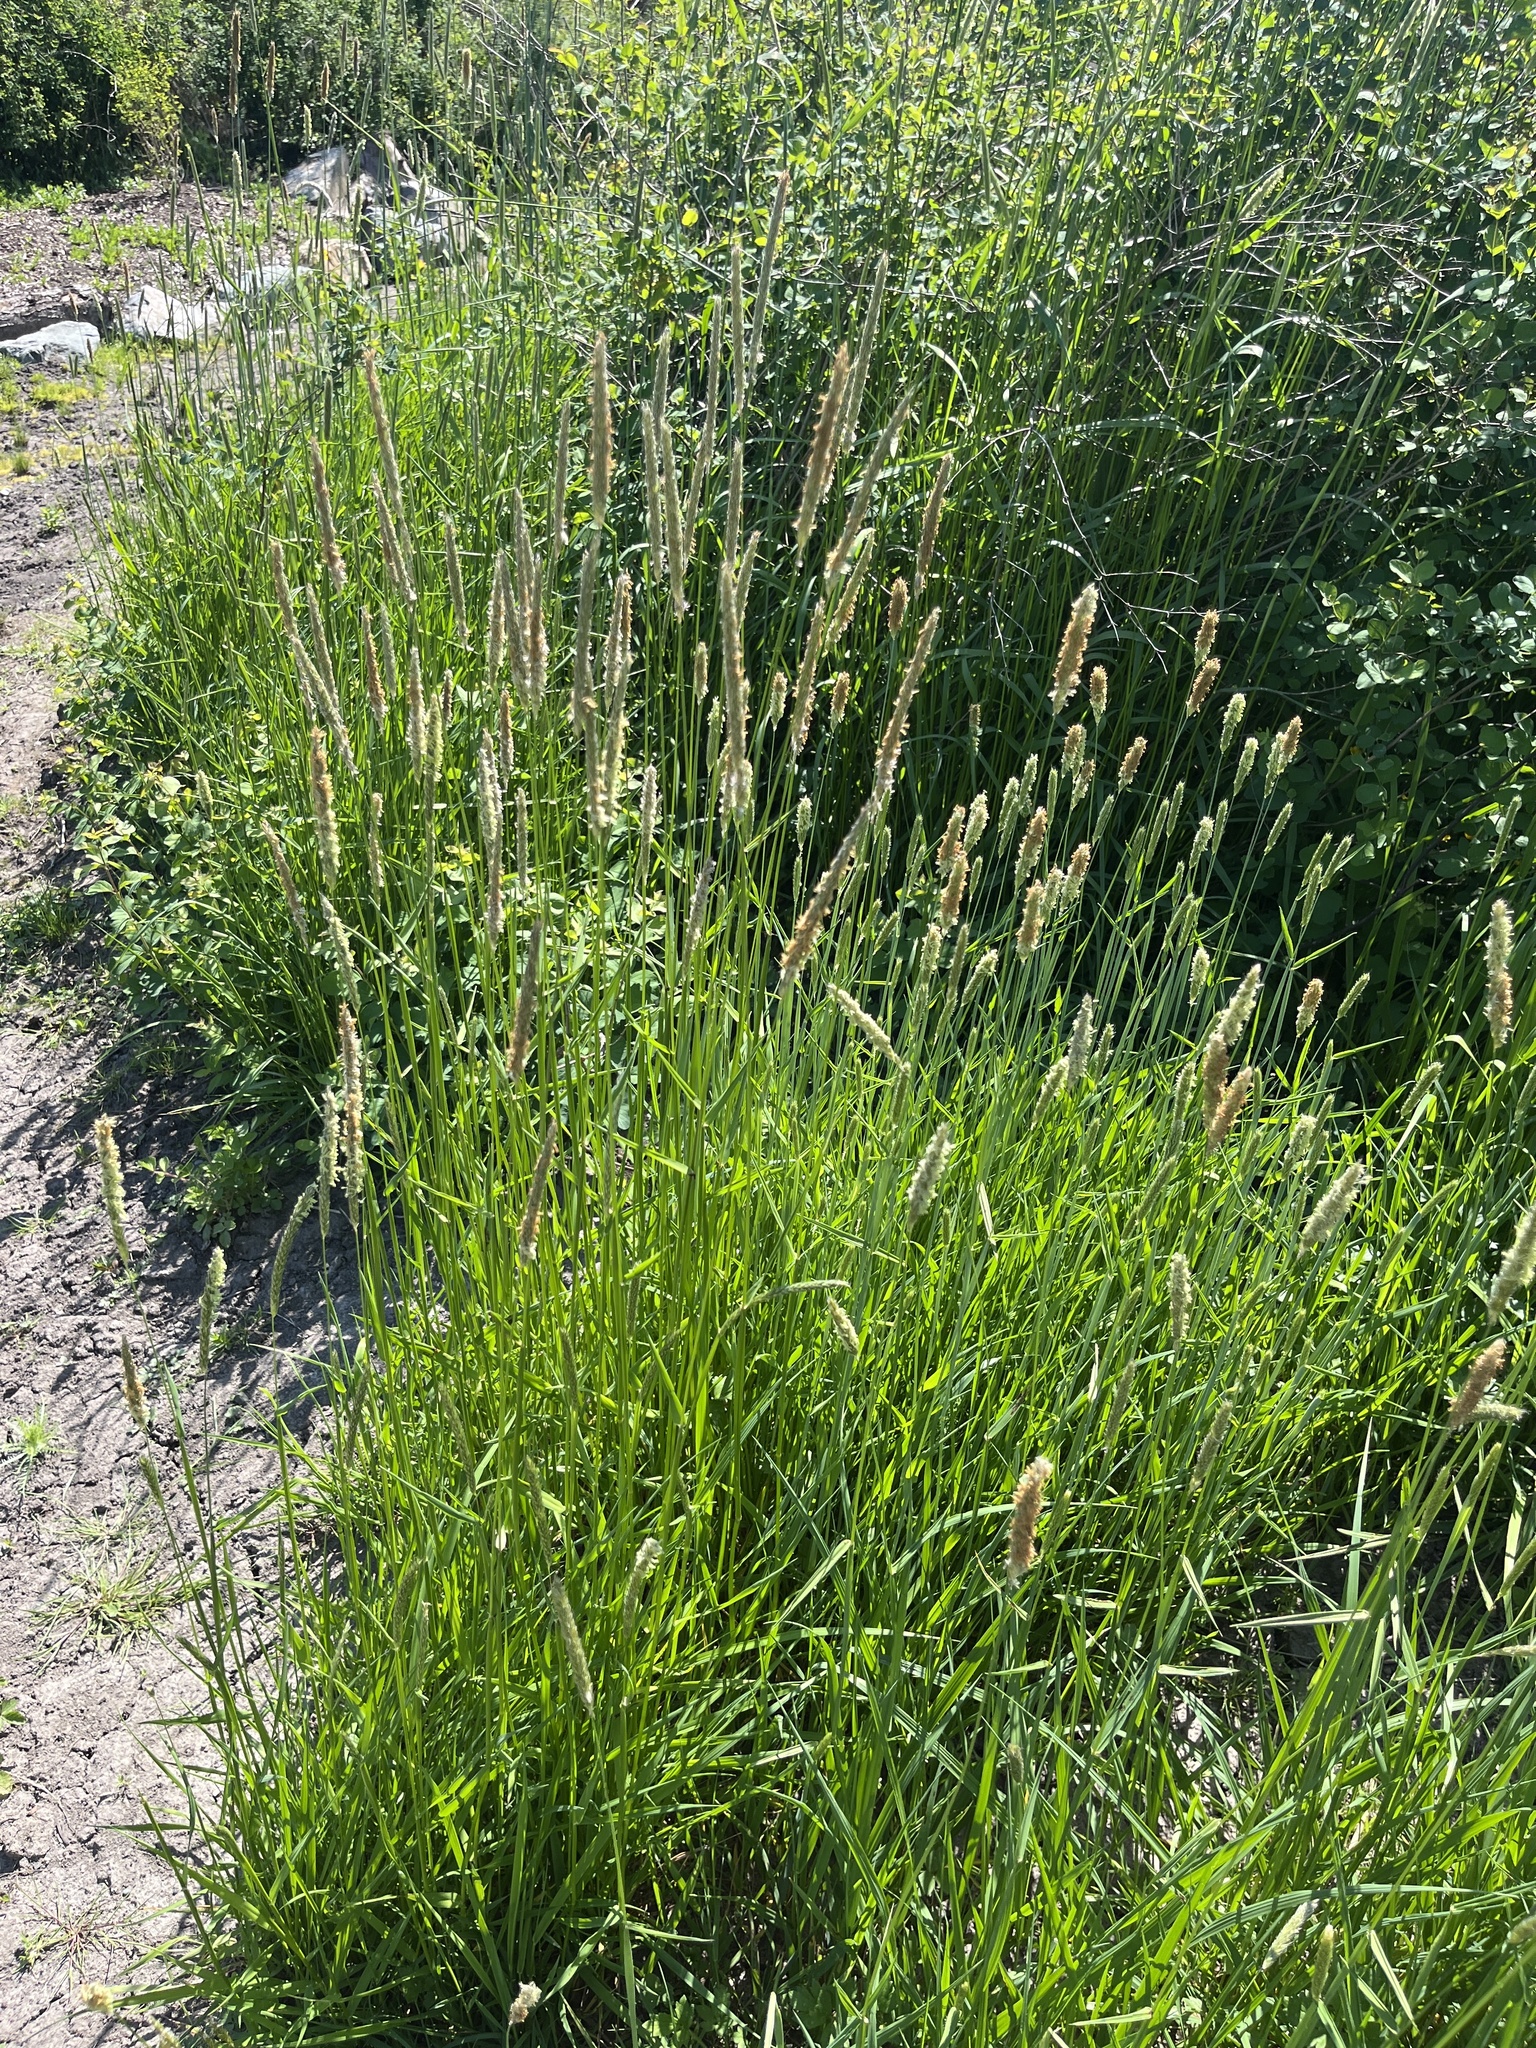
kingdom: Plantae
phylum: Tracheophyta
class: Liliopsida
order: Poales
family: Poaceae
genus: Alopecurus
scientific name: Alopecurus pratensis
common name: Meadow foxtail
